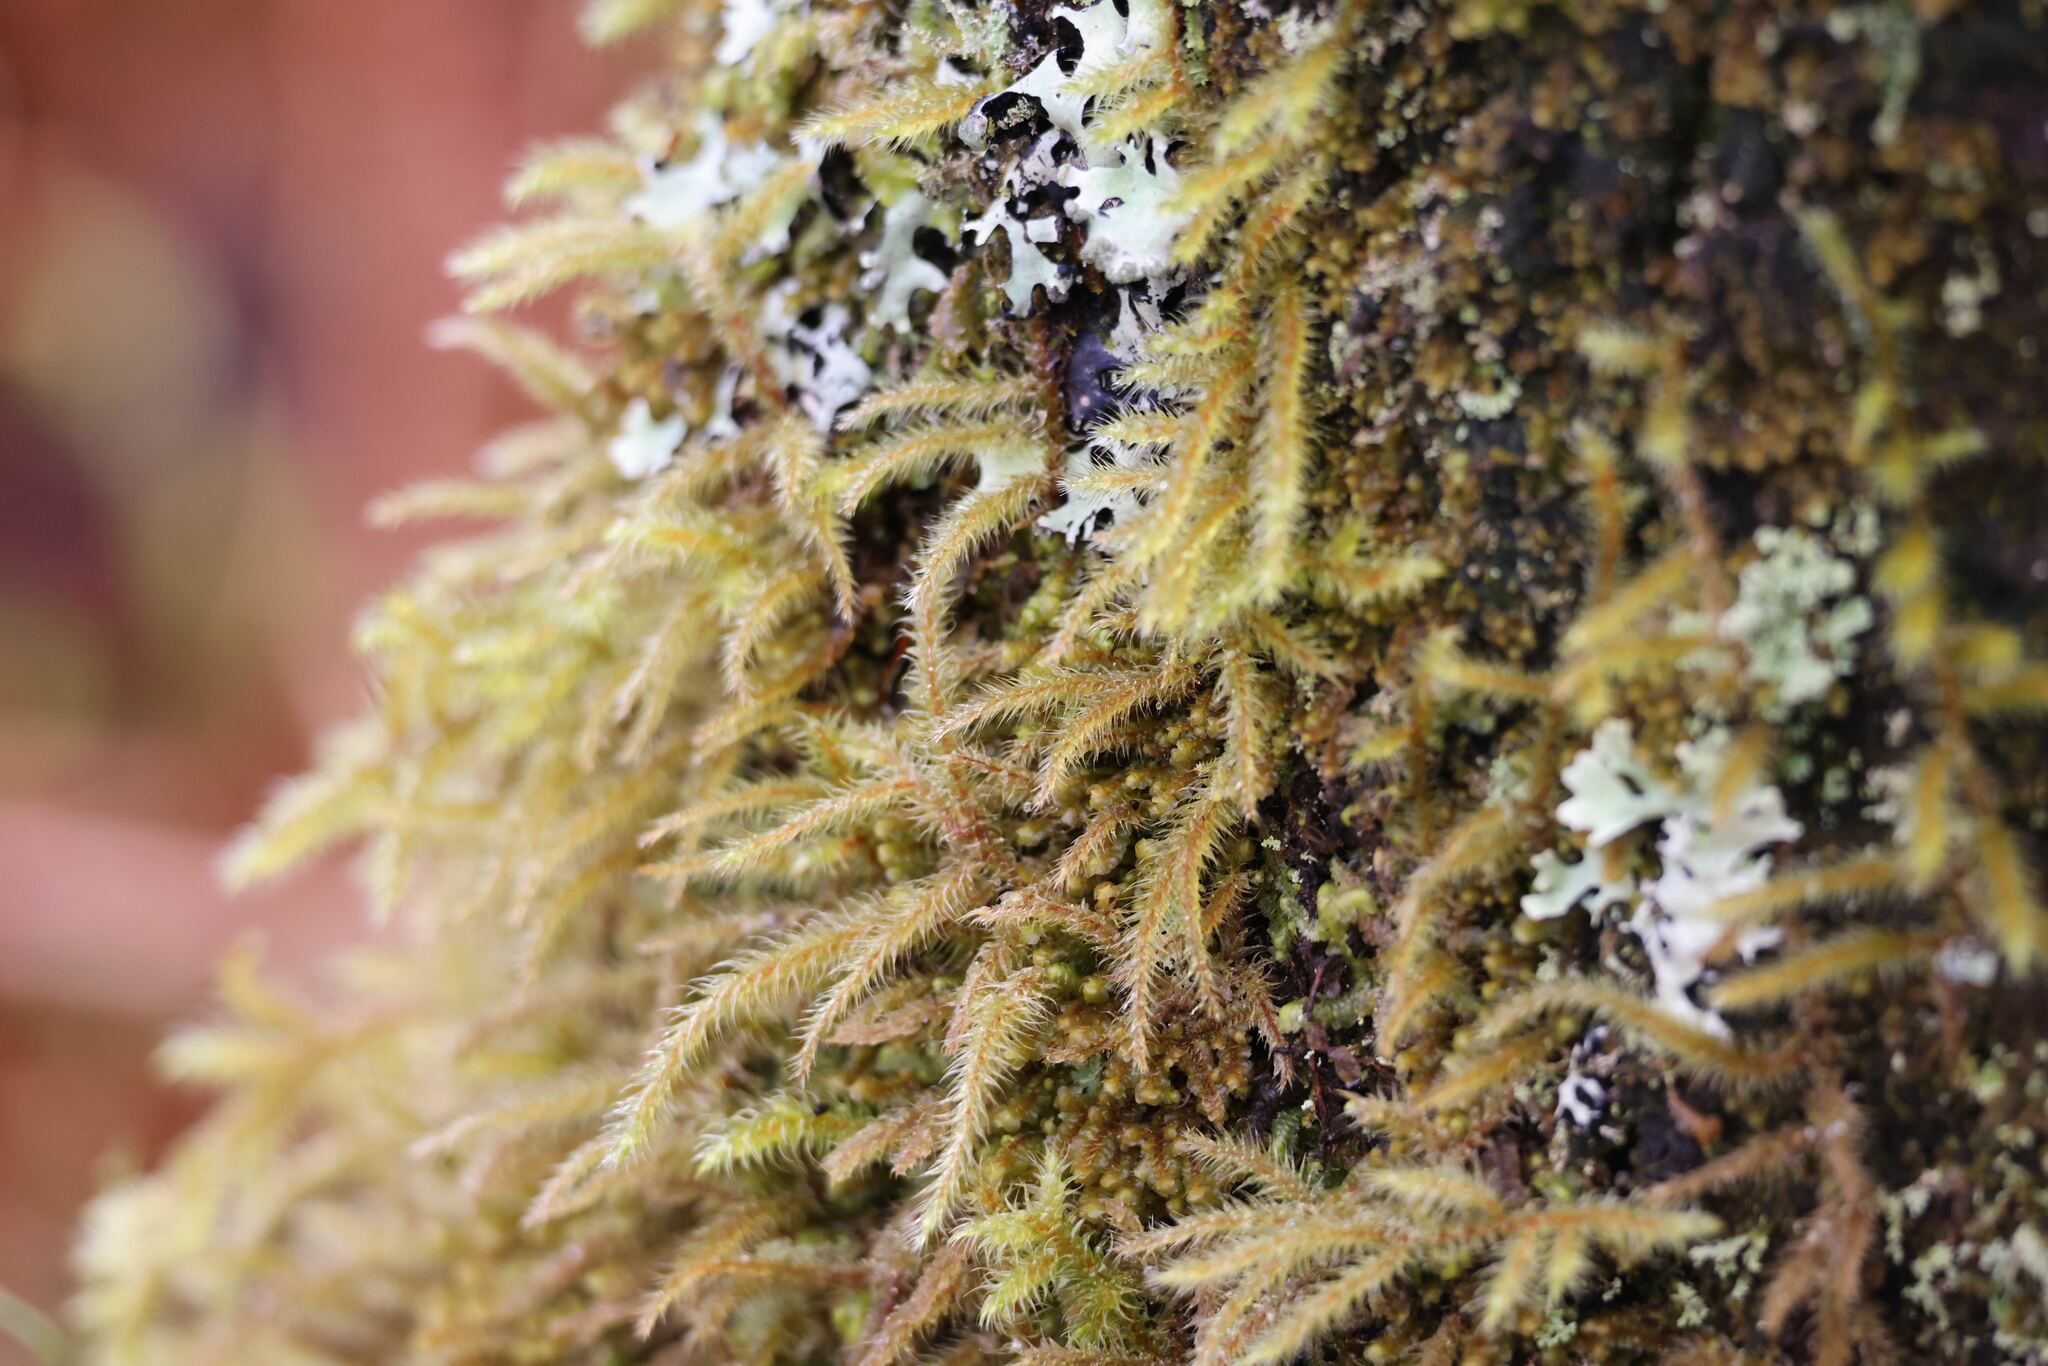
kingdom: Plantae
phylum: Bryophyta
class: Bryopsida
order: Hypnales
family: Hylocomiaceae
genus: Rhytidiadelphus
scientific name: Rhytidiadelphus loreus
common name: Lanky moss
